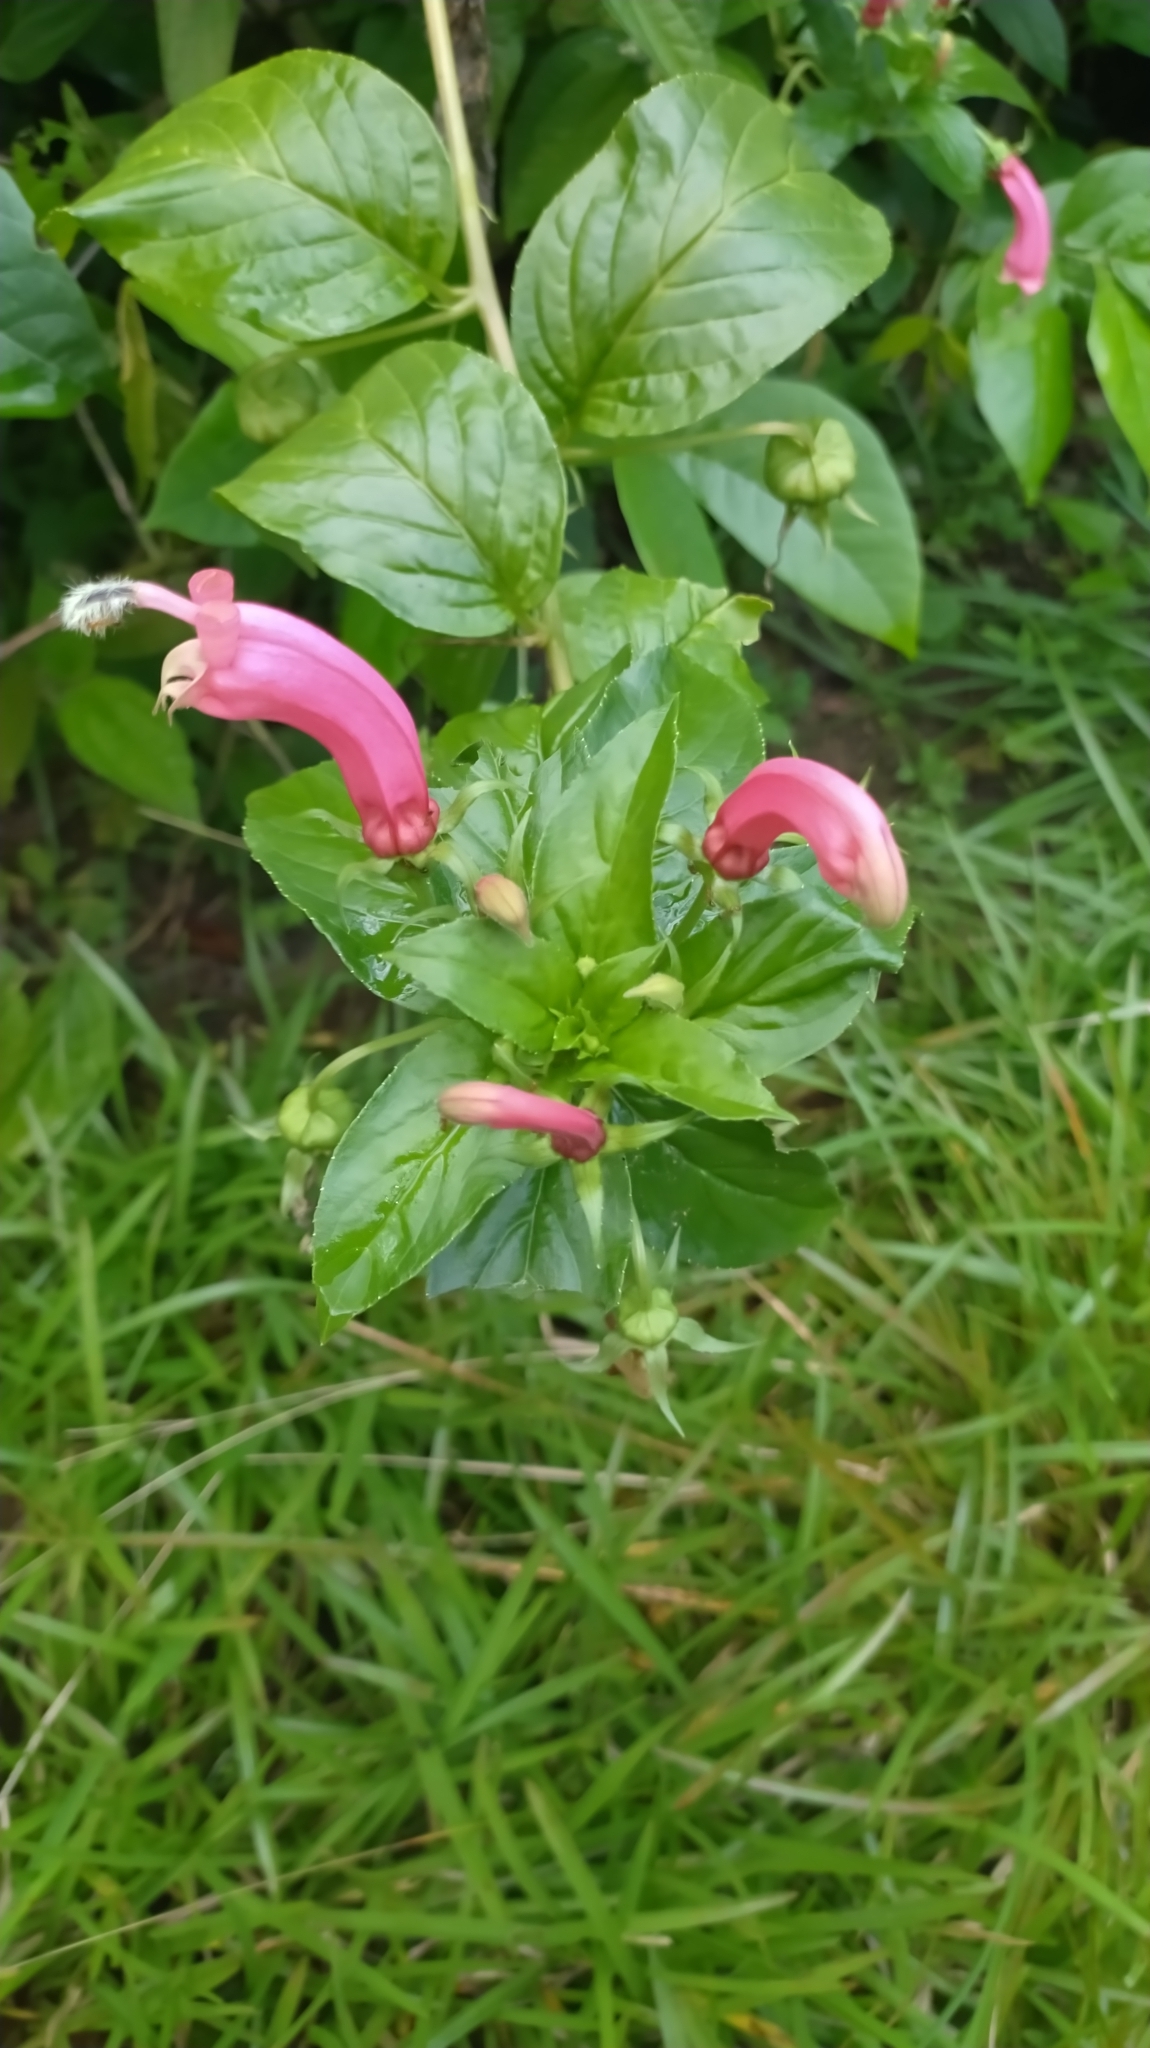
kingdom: Plantae
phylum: Tracheophyta
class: Magnoliopsida
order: Asterales
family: Campanulaceae
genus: Centropogon
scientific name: Centropogon cornutus
